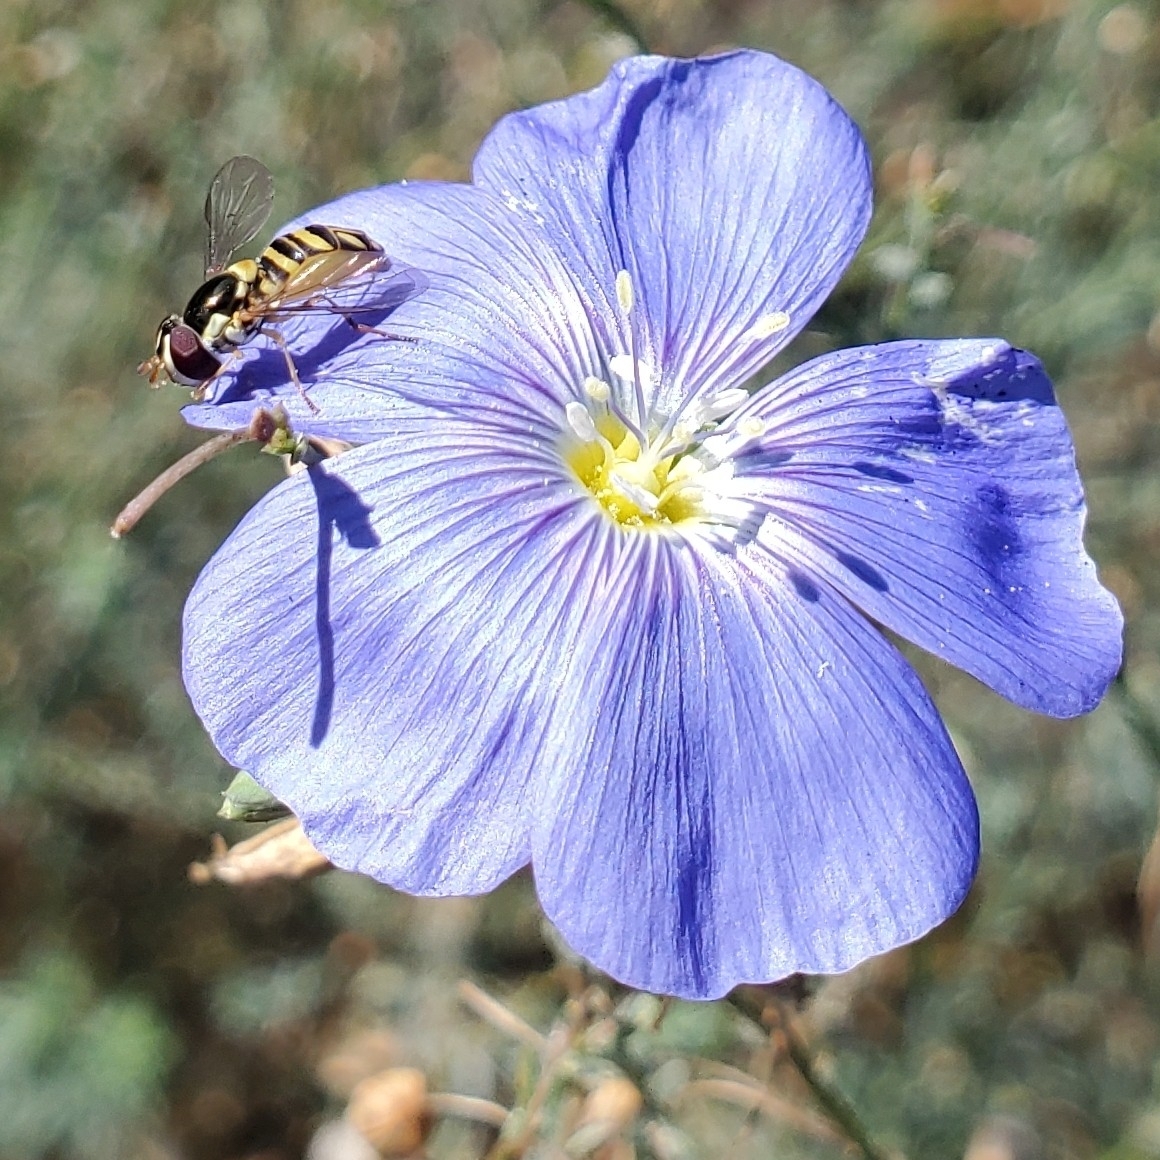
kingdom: Animalia
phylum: Arthropoda
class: Insecta
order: Diptera
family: Syrphidae
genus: Allograpta
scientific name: Allograpta obliqua
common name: Common oblique syrphid
